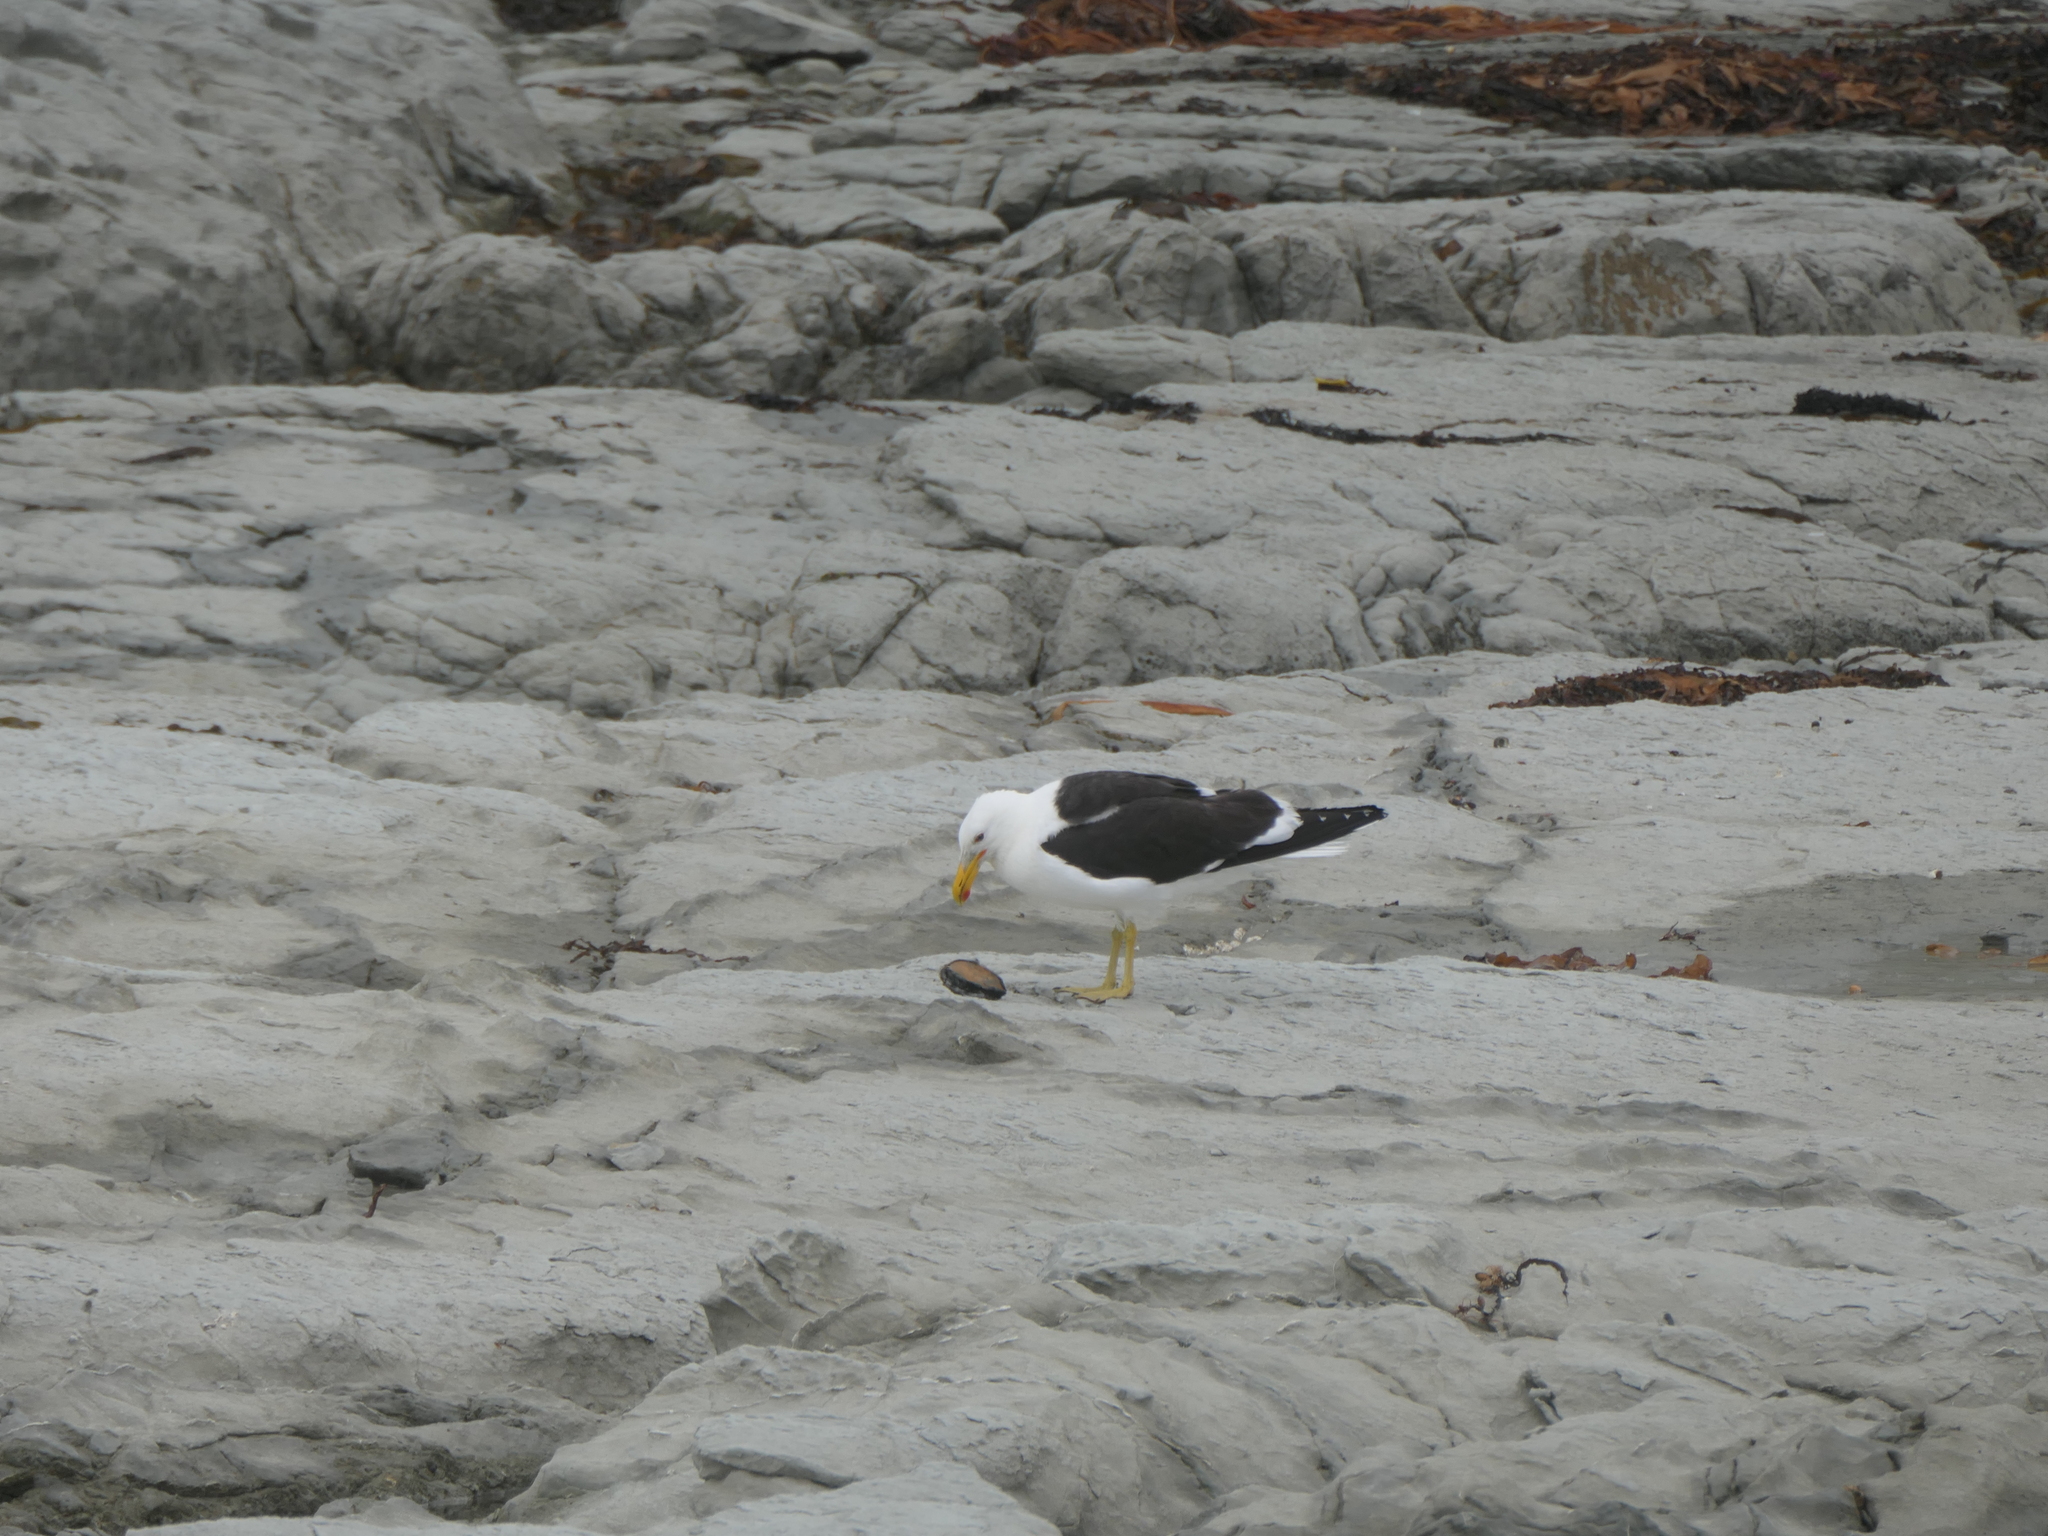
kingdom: Animalia
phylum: Chordata
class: Aves
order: Charadriiformes
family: Laridae
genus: Larus
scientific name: Larus dominicanus
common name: Kelp gull
